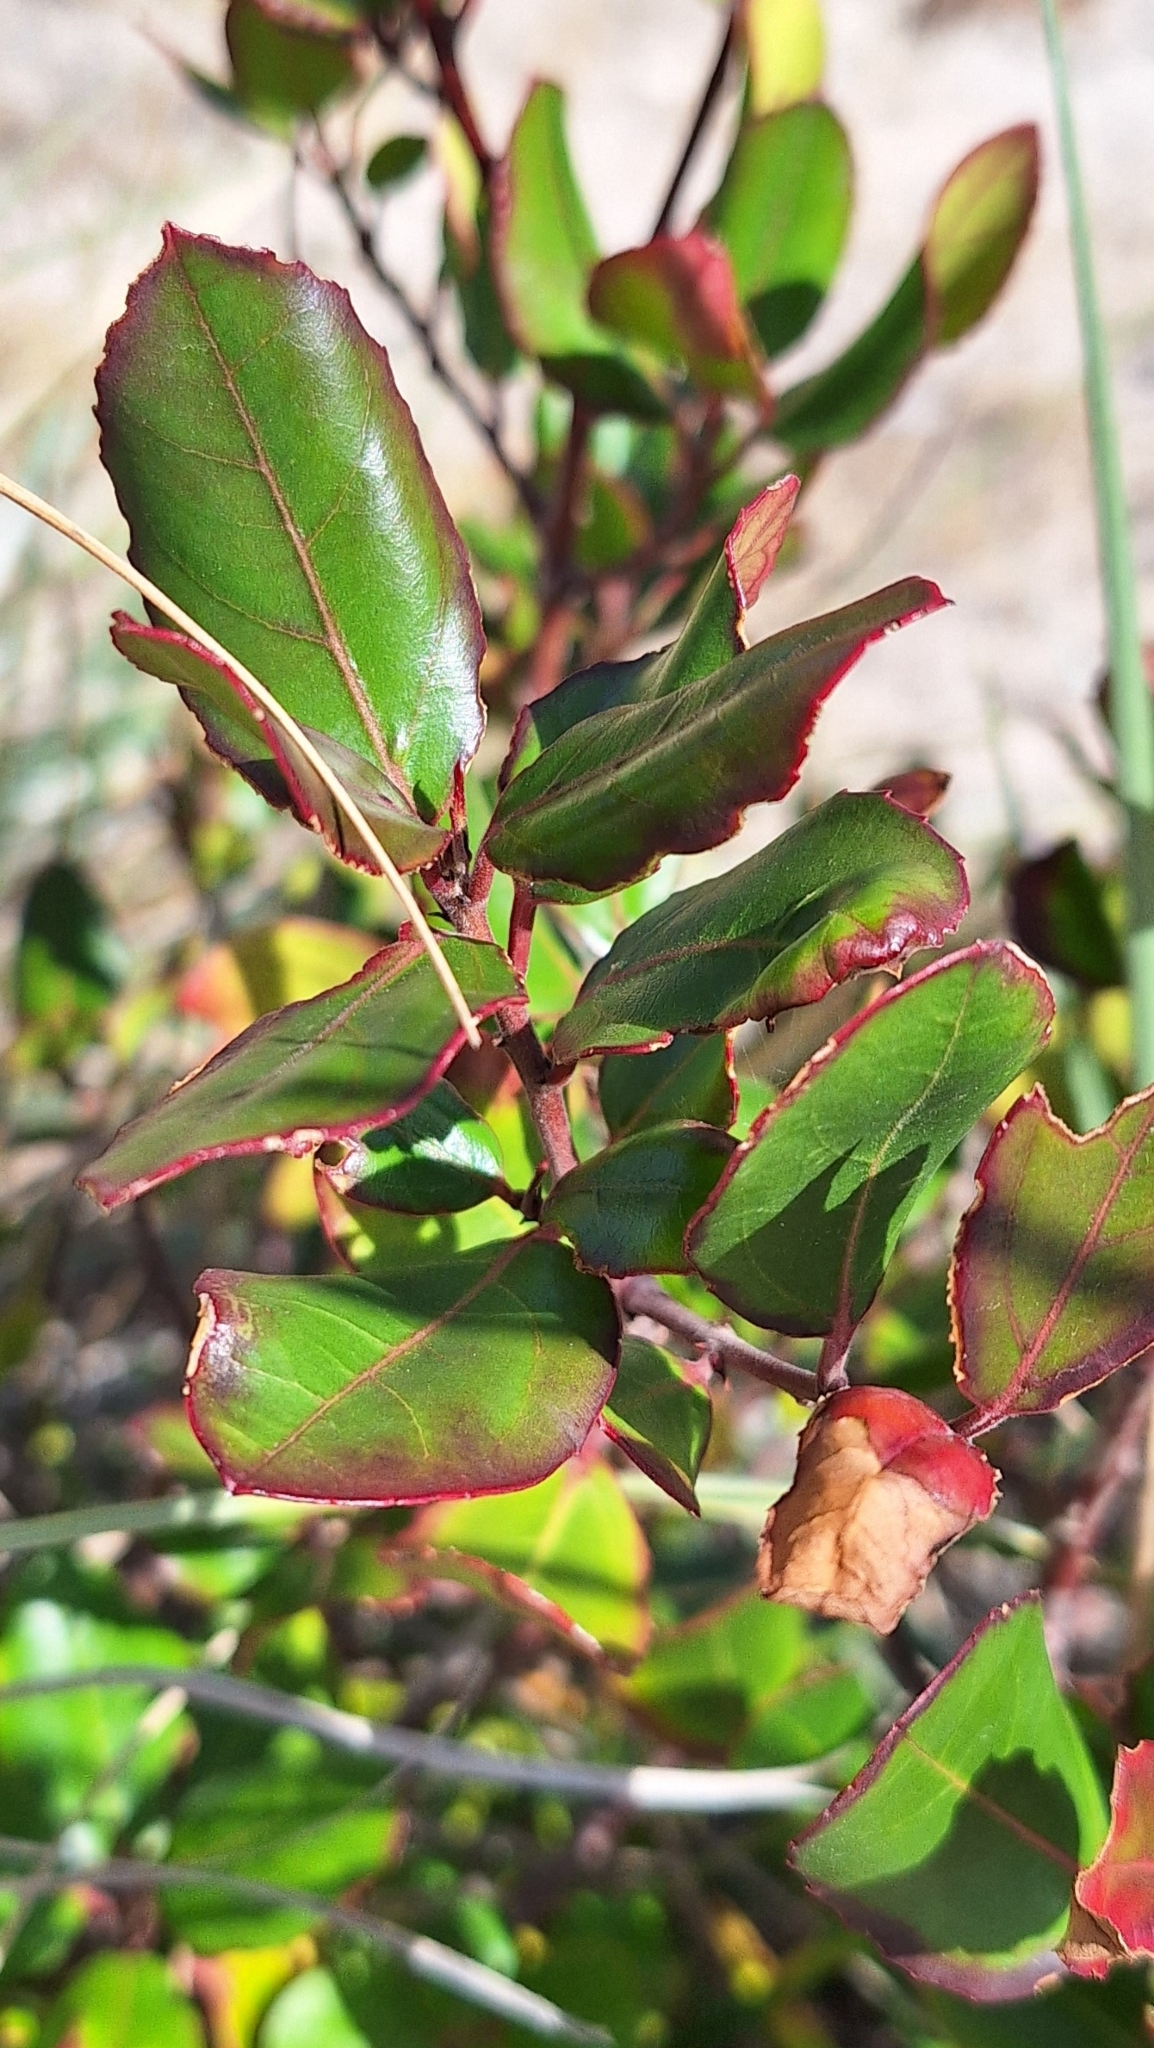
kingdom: Plantae
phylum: Tracheophyta
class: Magnoliopsida
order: Rosales
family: Rhamnaceae
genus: Rhamnus
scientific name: Rhamnus alaternus
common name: Mediterranean buckthorn
